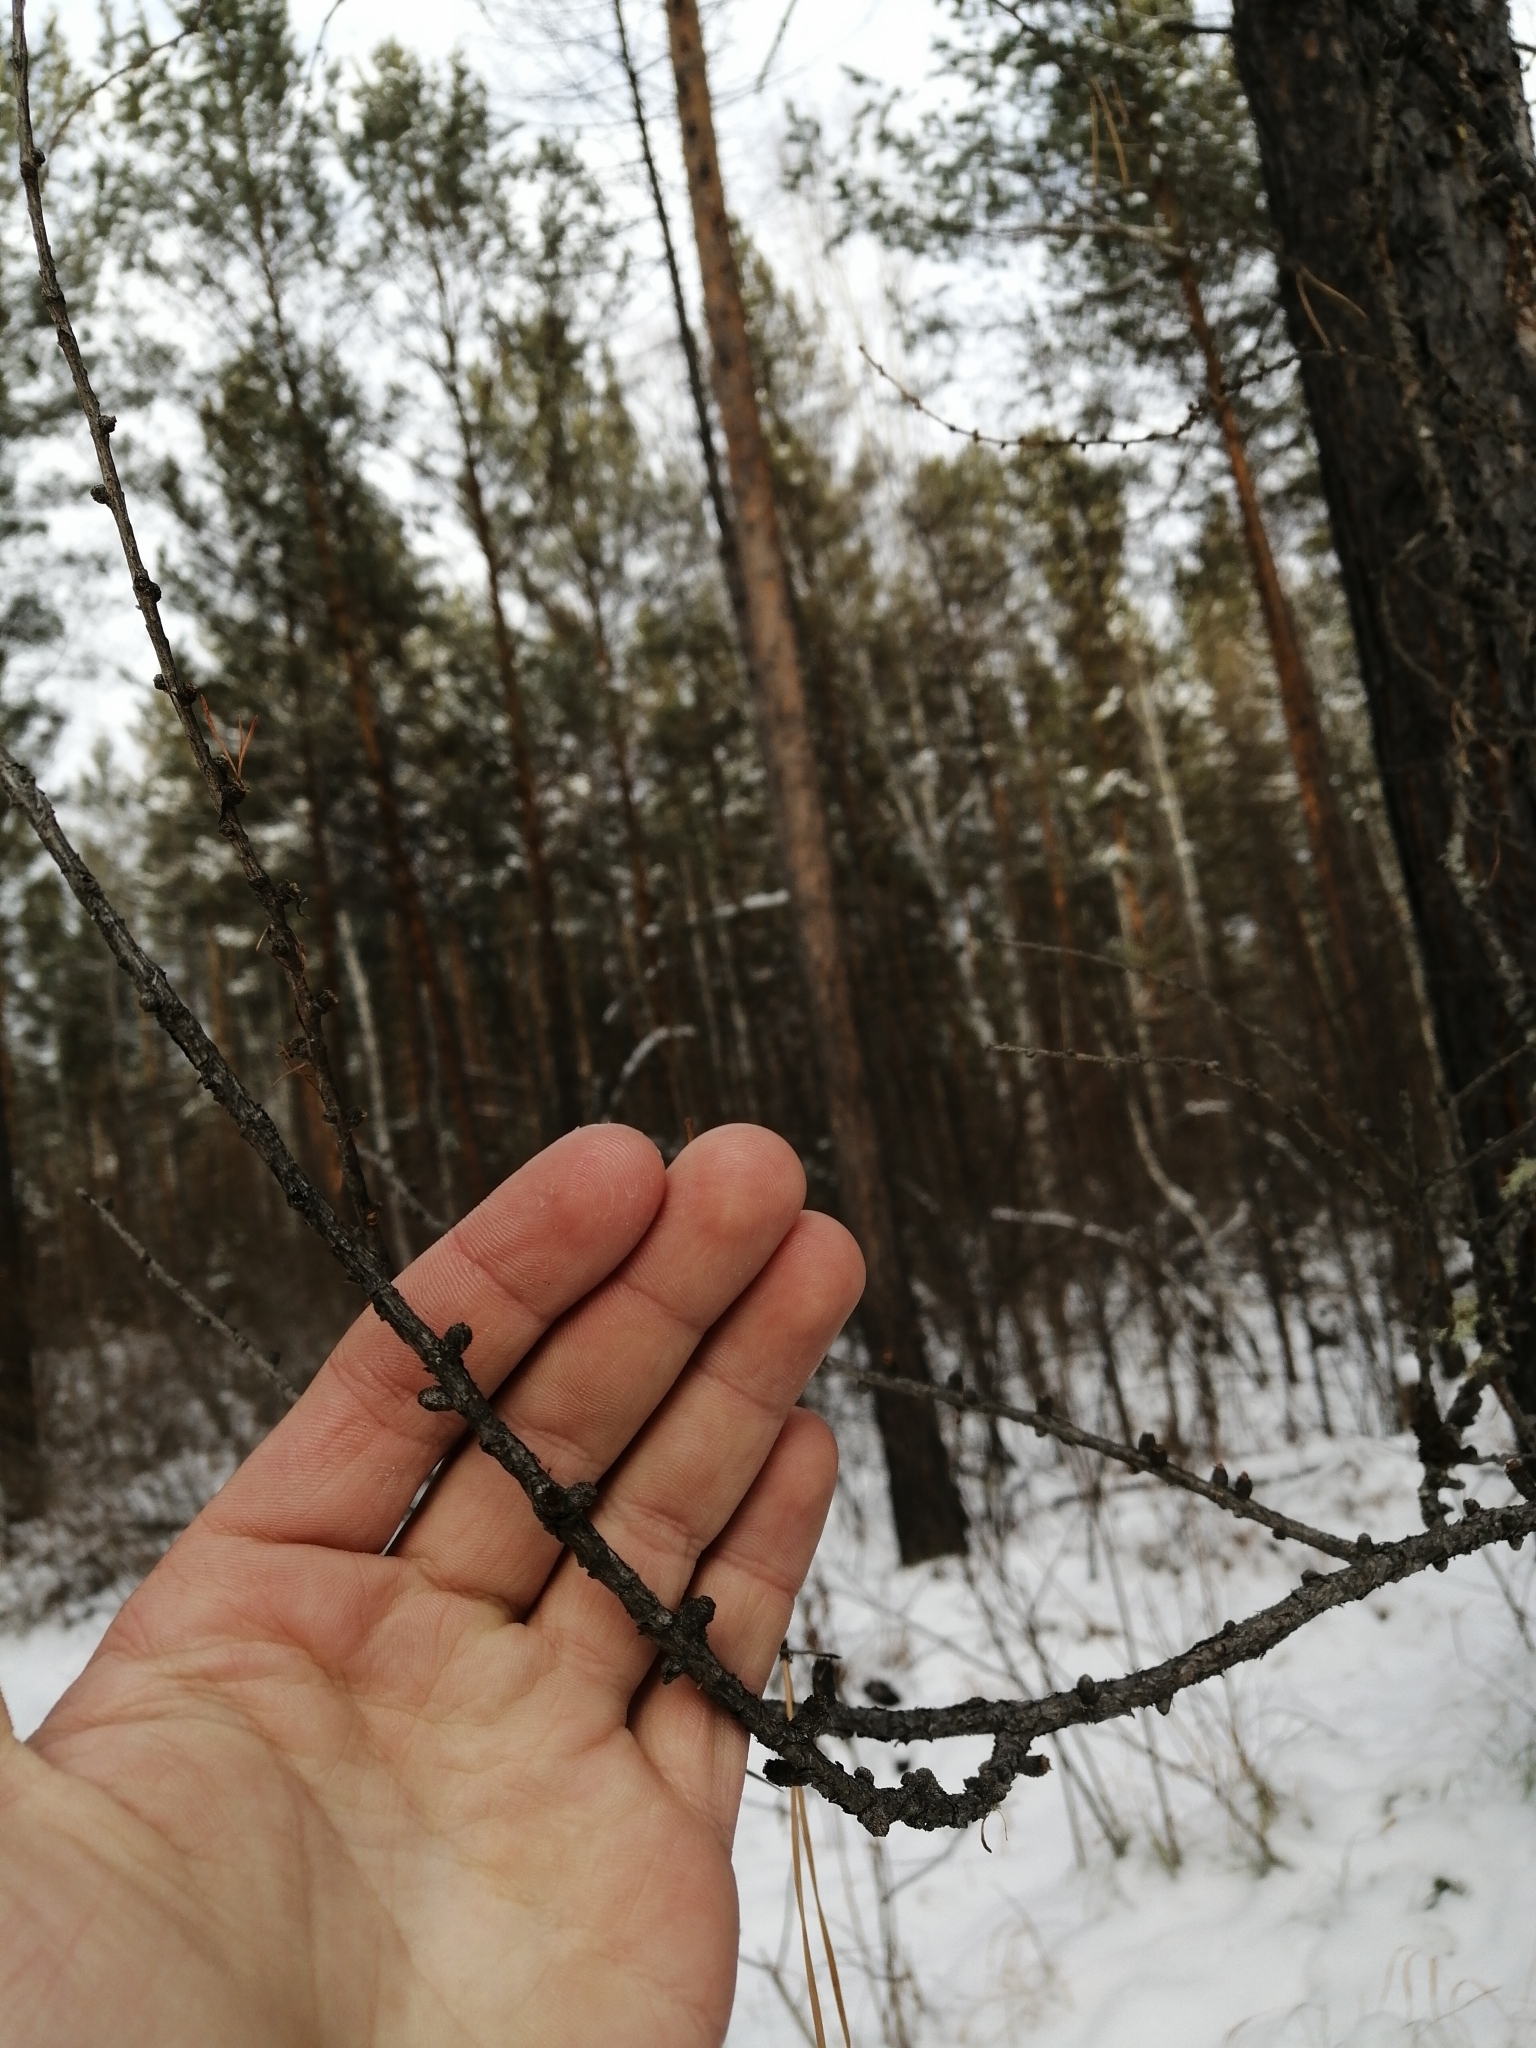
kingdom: Plantae
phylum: Tracheophyta
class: Pinopsida
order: Pinales
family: Pinaceae
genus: Larix
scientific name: Larix sibirica
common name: Siberian larch
